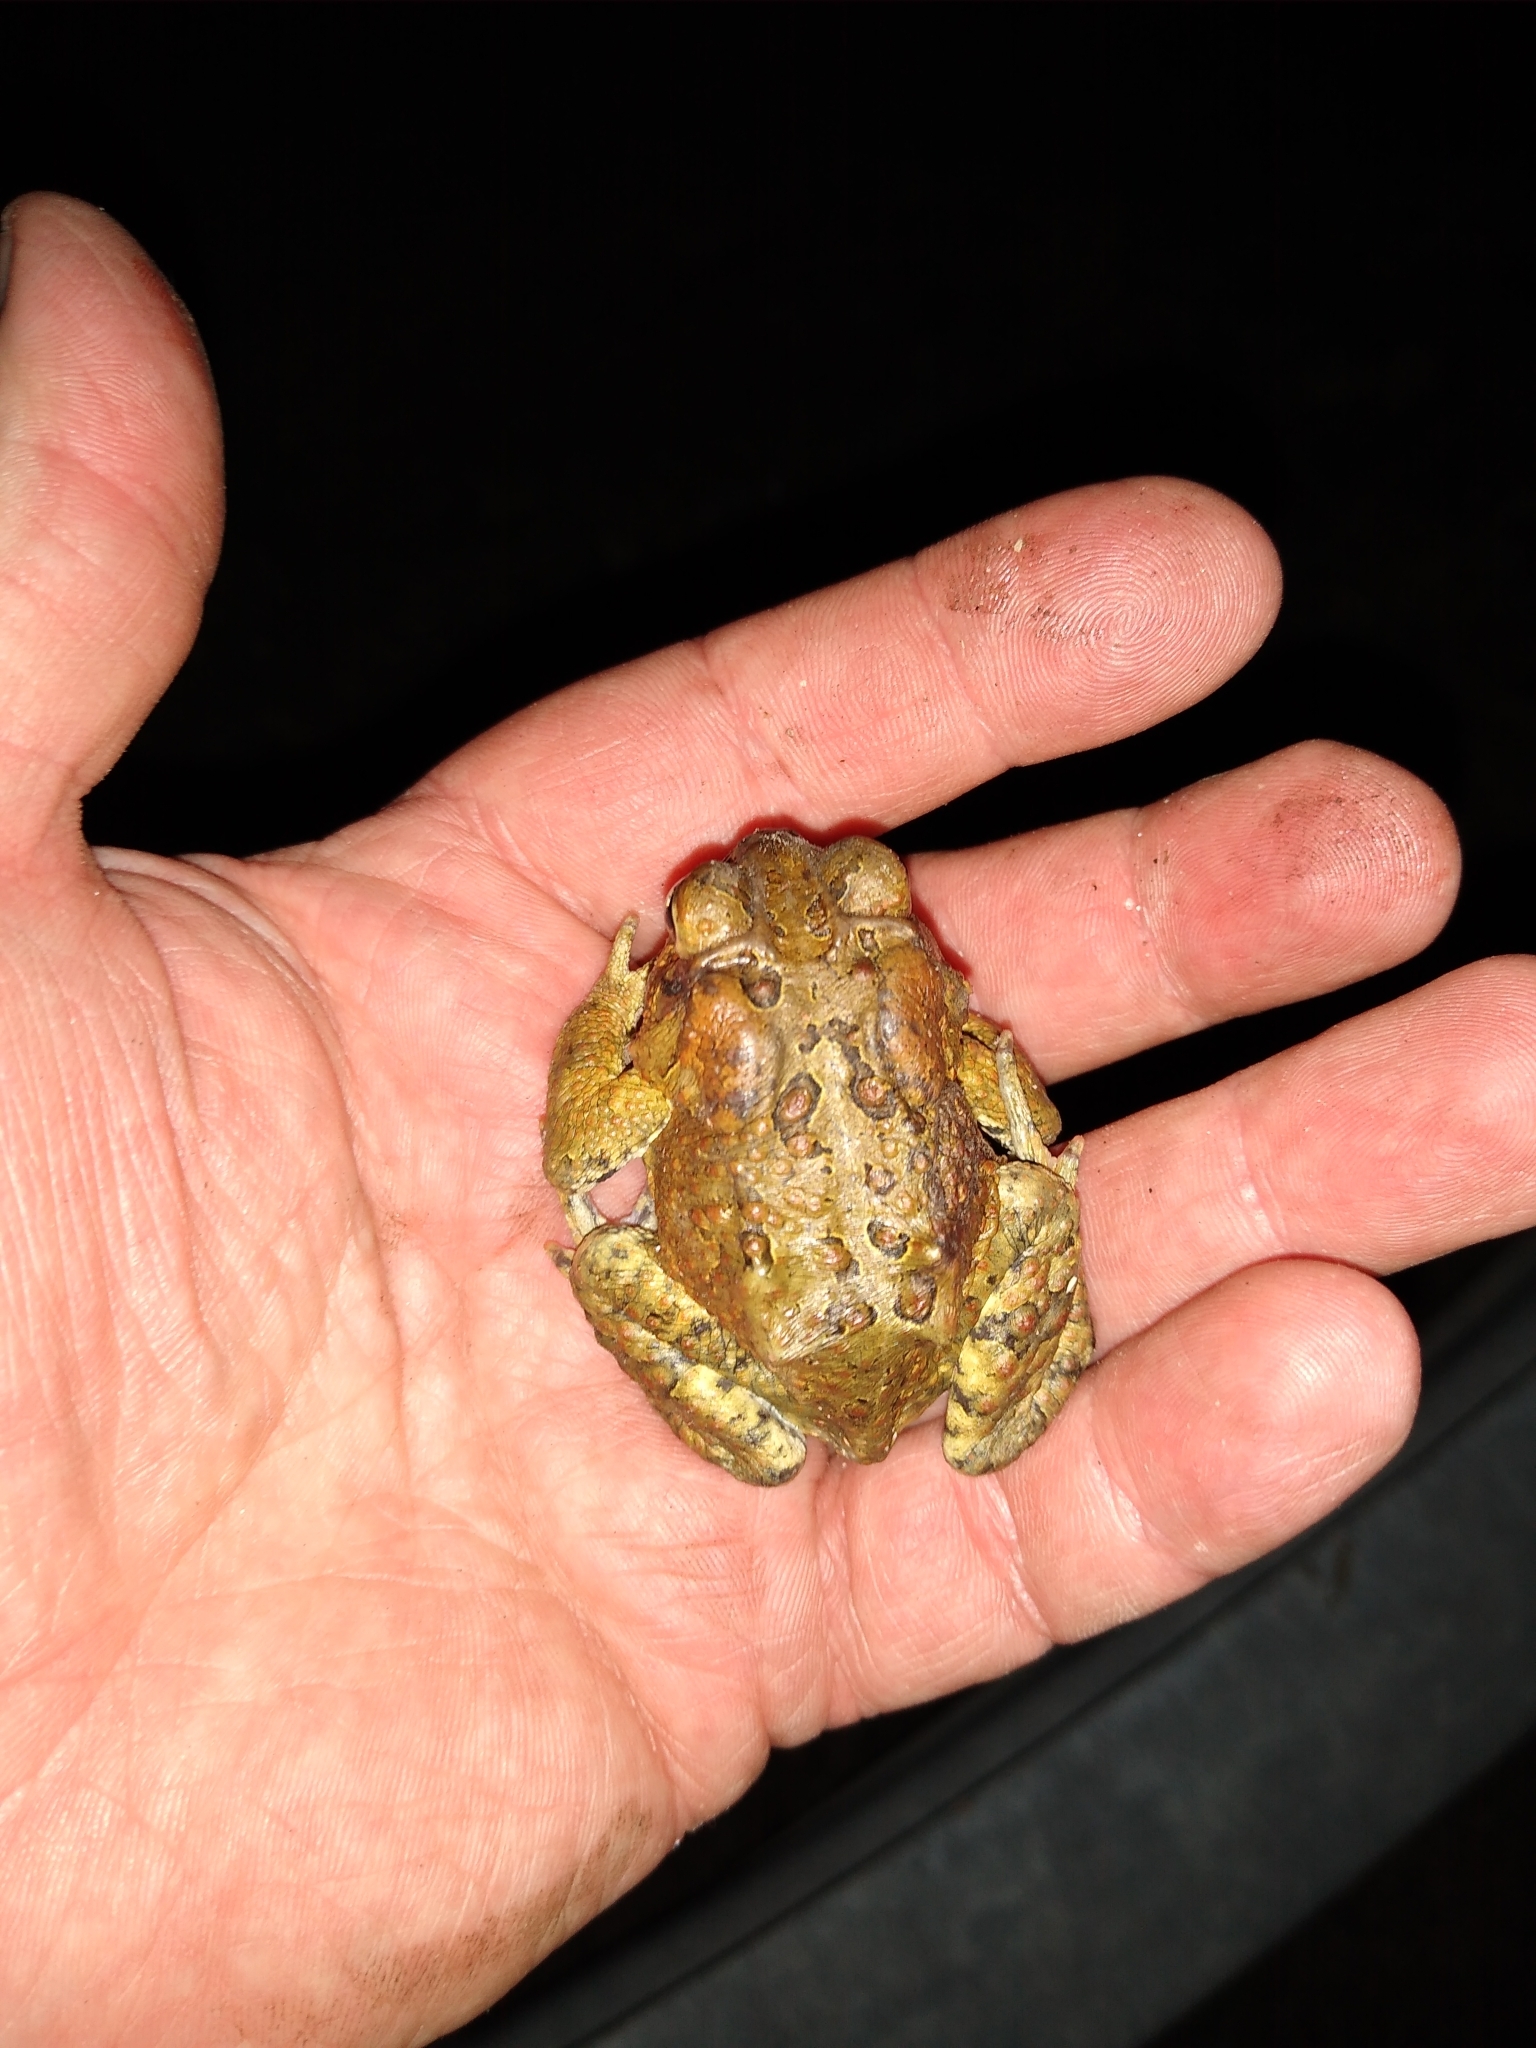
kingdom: Animalia
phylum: Chordata
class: Amphibia
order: Anura
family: Bufonidae
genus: Anaxyrus
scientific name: Anaxyrus americanus
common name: American toad
